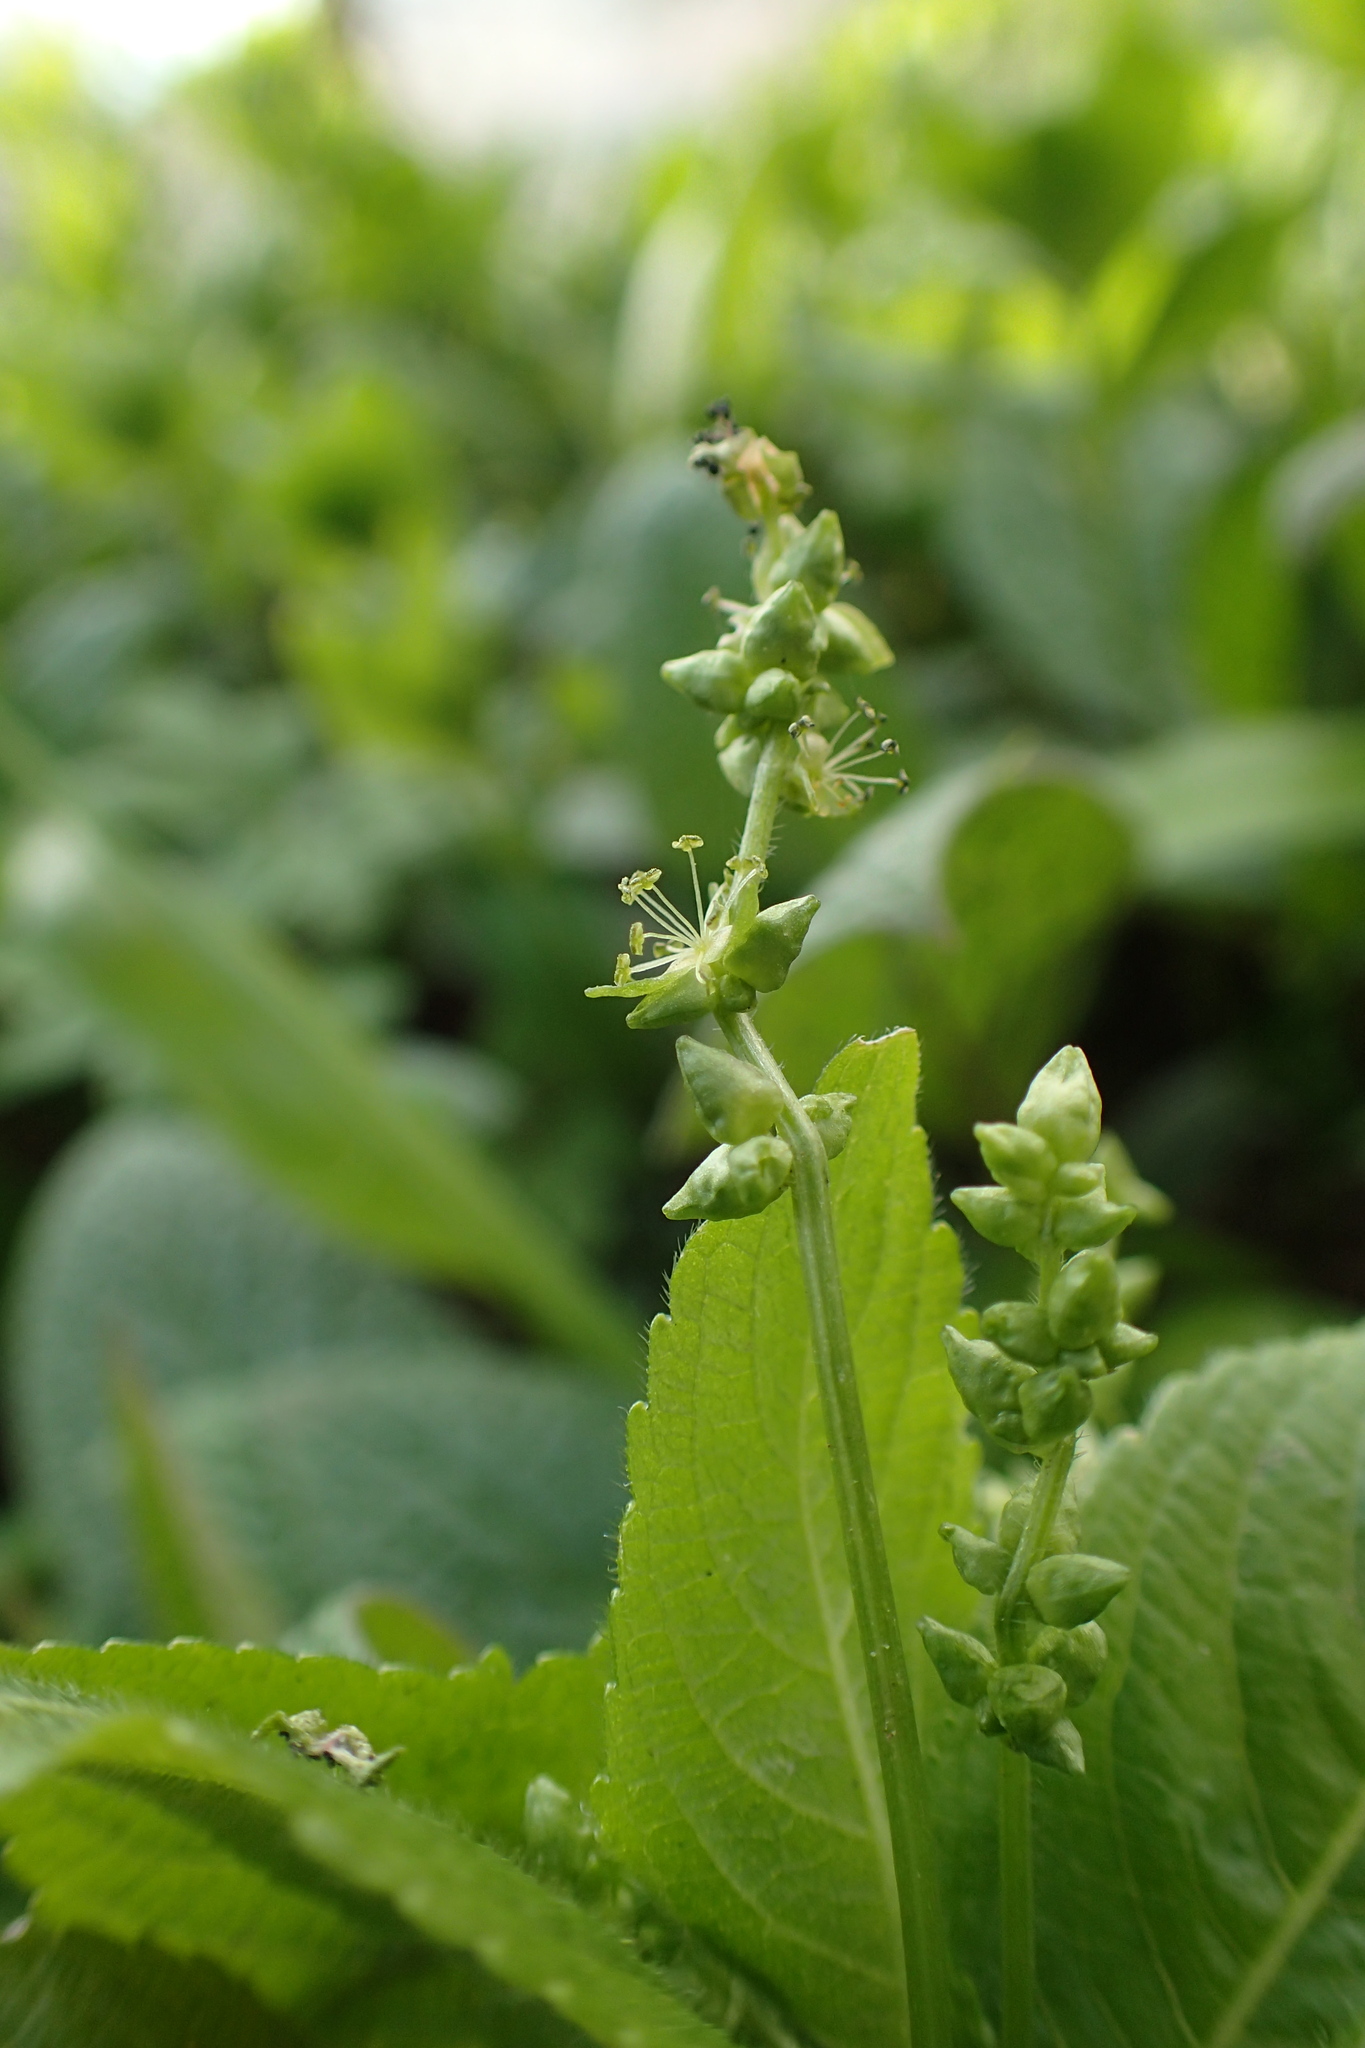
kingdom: Plantae
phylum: Tracheophyta
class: Magnoliopsida
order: Malpighiales
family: Euphorbiaceae
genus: Mercurialis
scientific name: Mercurialis perennis
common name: Dog mercury
